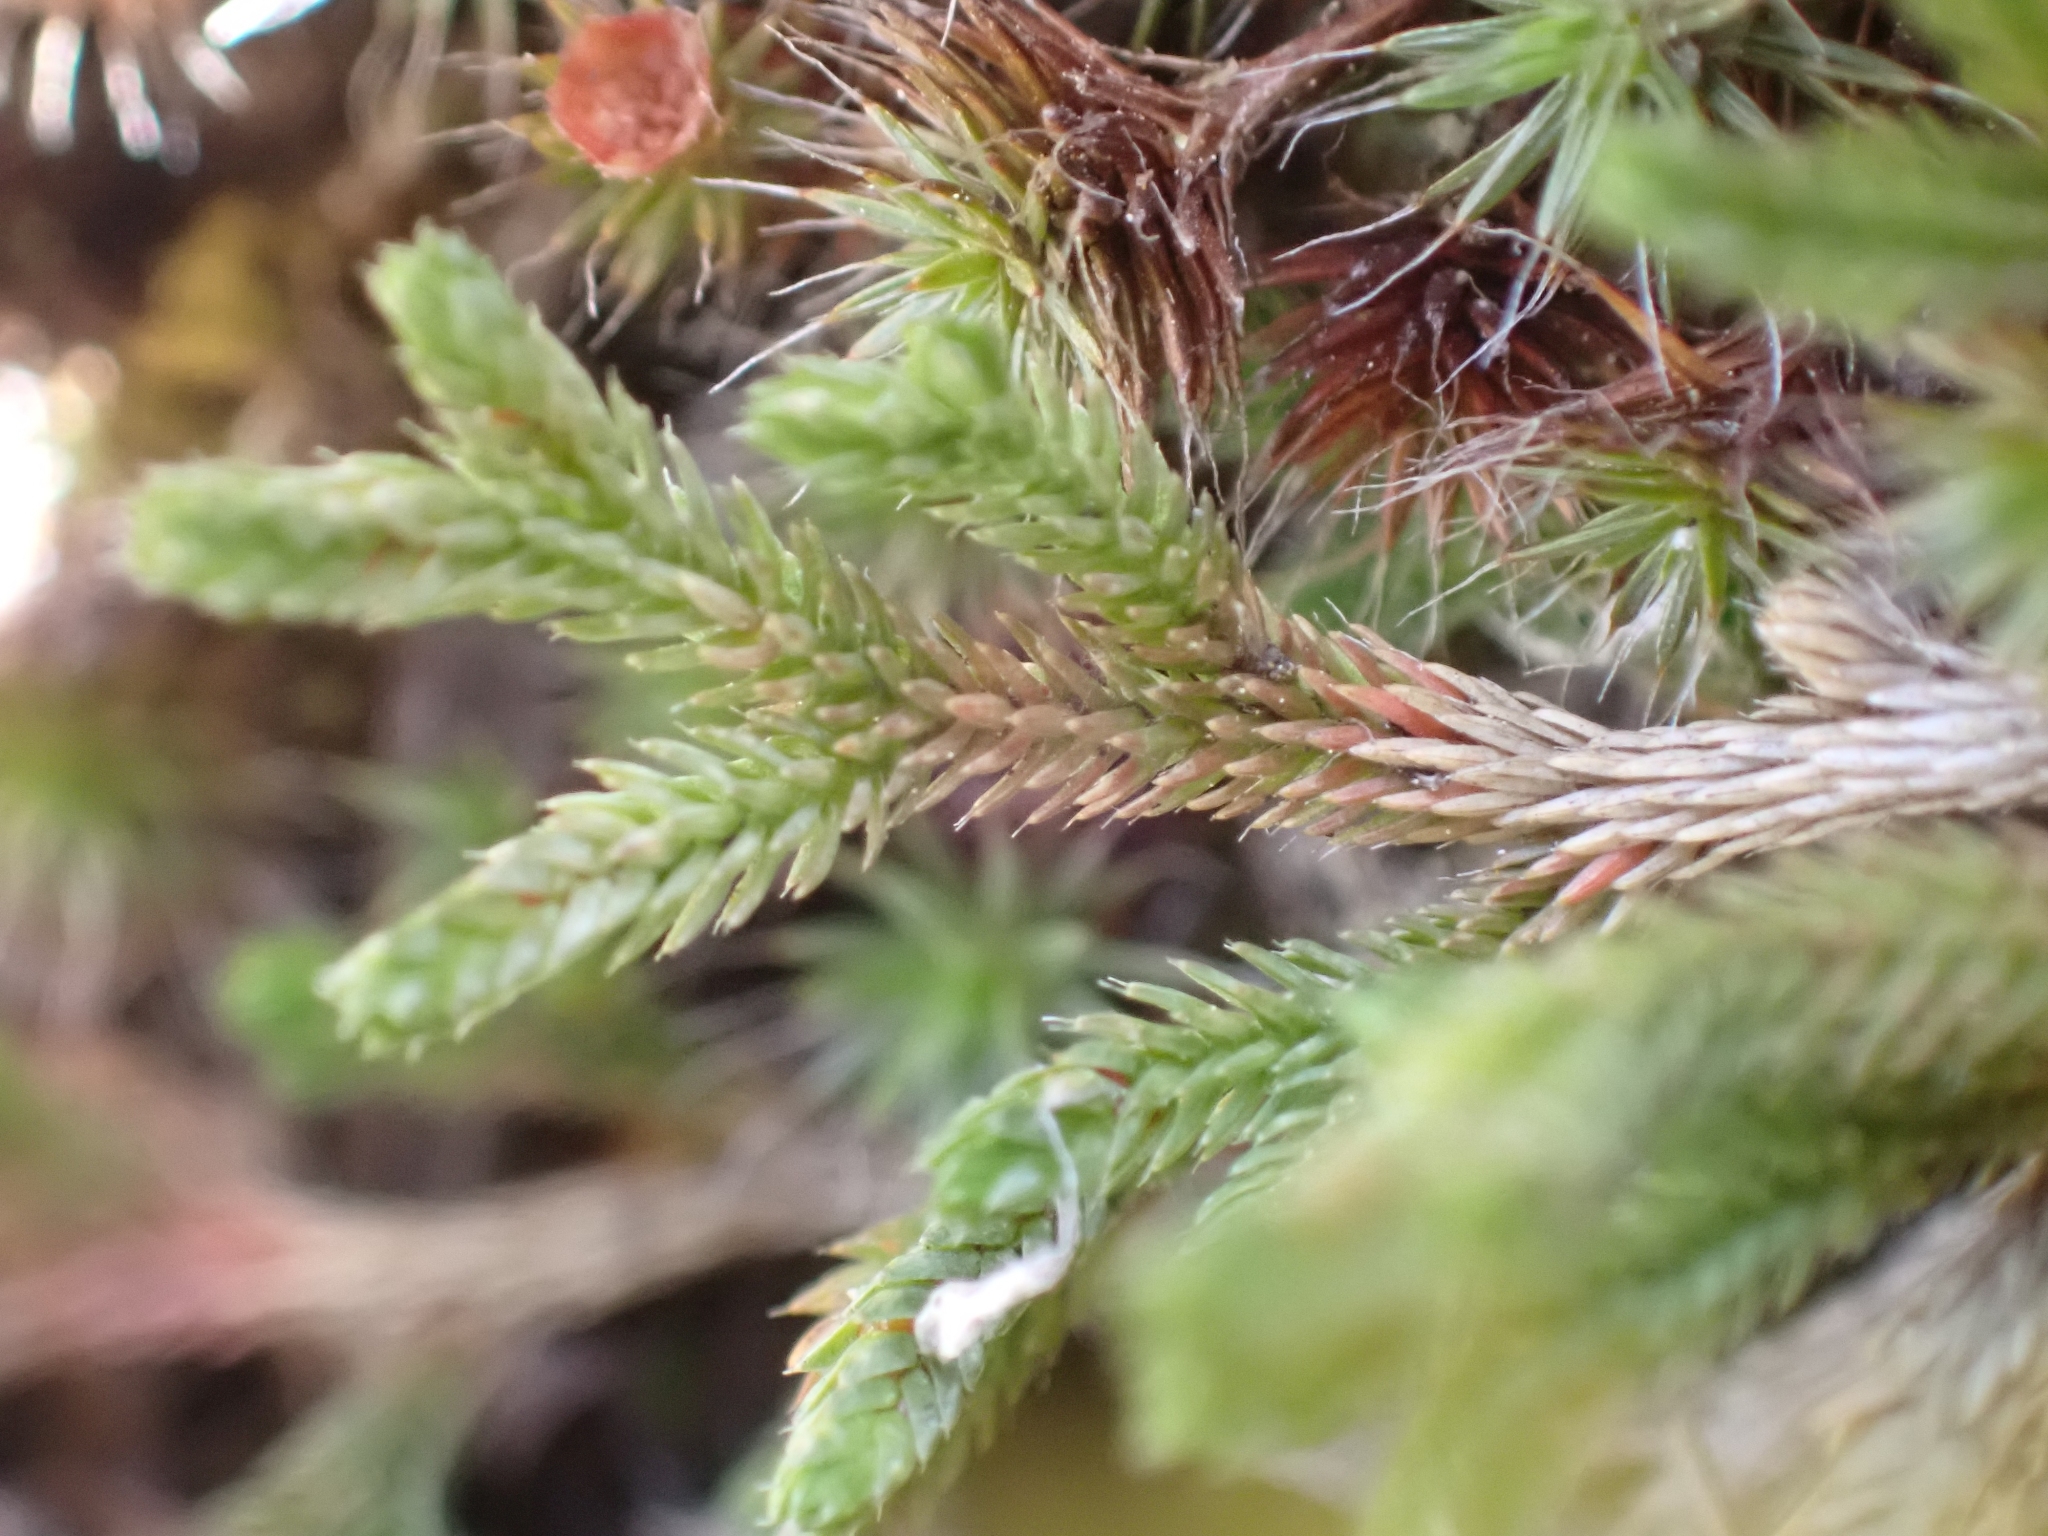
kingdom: Plantae
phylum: Tracheophyta
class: Lycopodiopsida
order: Selaginellales
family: Selaginellaceae
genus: Selaginella
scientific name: Selaginella wallacei
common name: Wallace's selaginella
